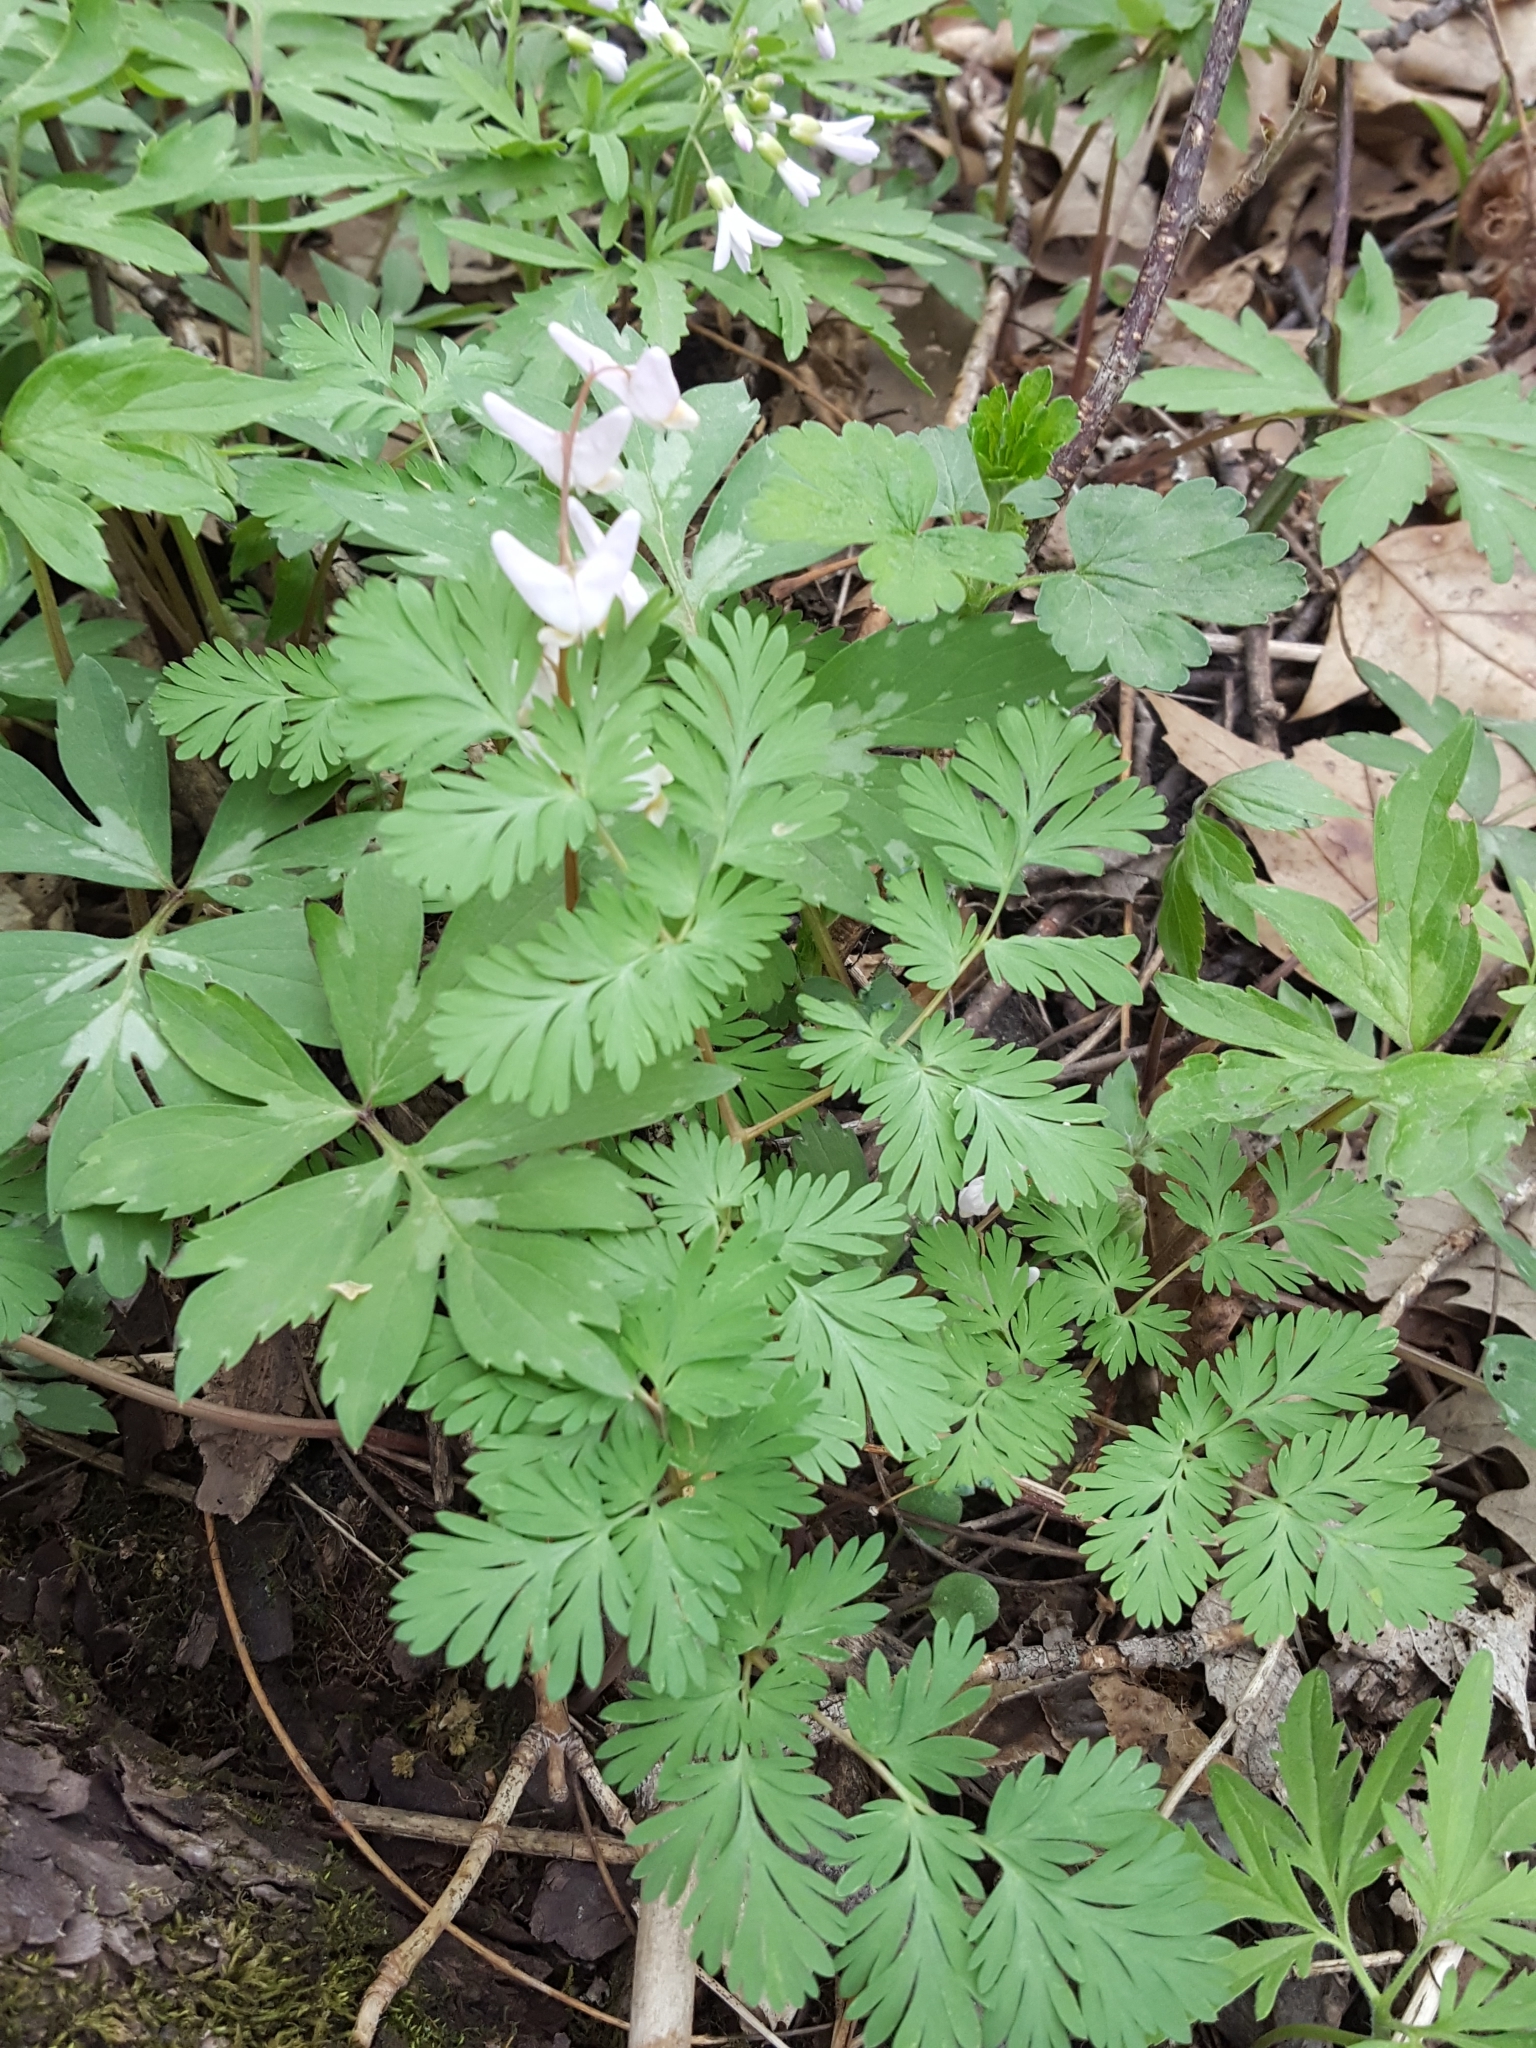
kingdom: Plantae
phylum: Tracheophyta
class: Magnoliopsida
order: Ranunculales
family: Papaveraceae
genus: Dicentra
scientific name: Dicentra cucullaria
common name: Dutchman's breeches
